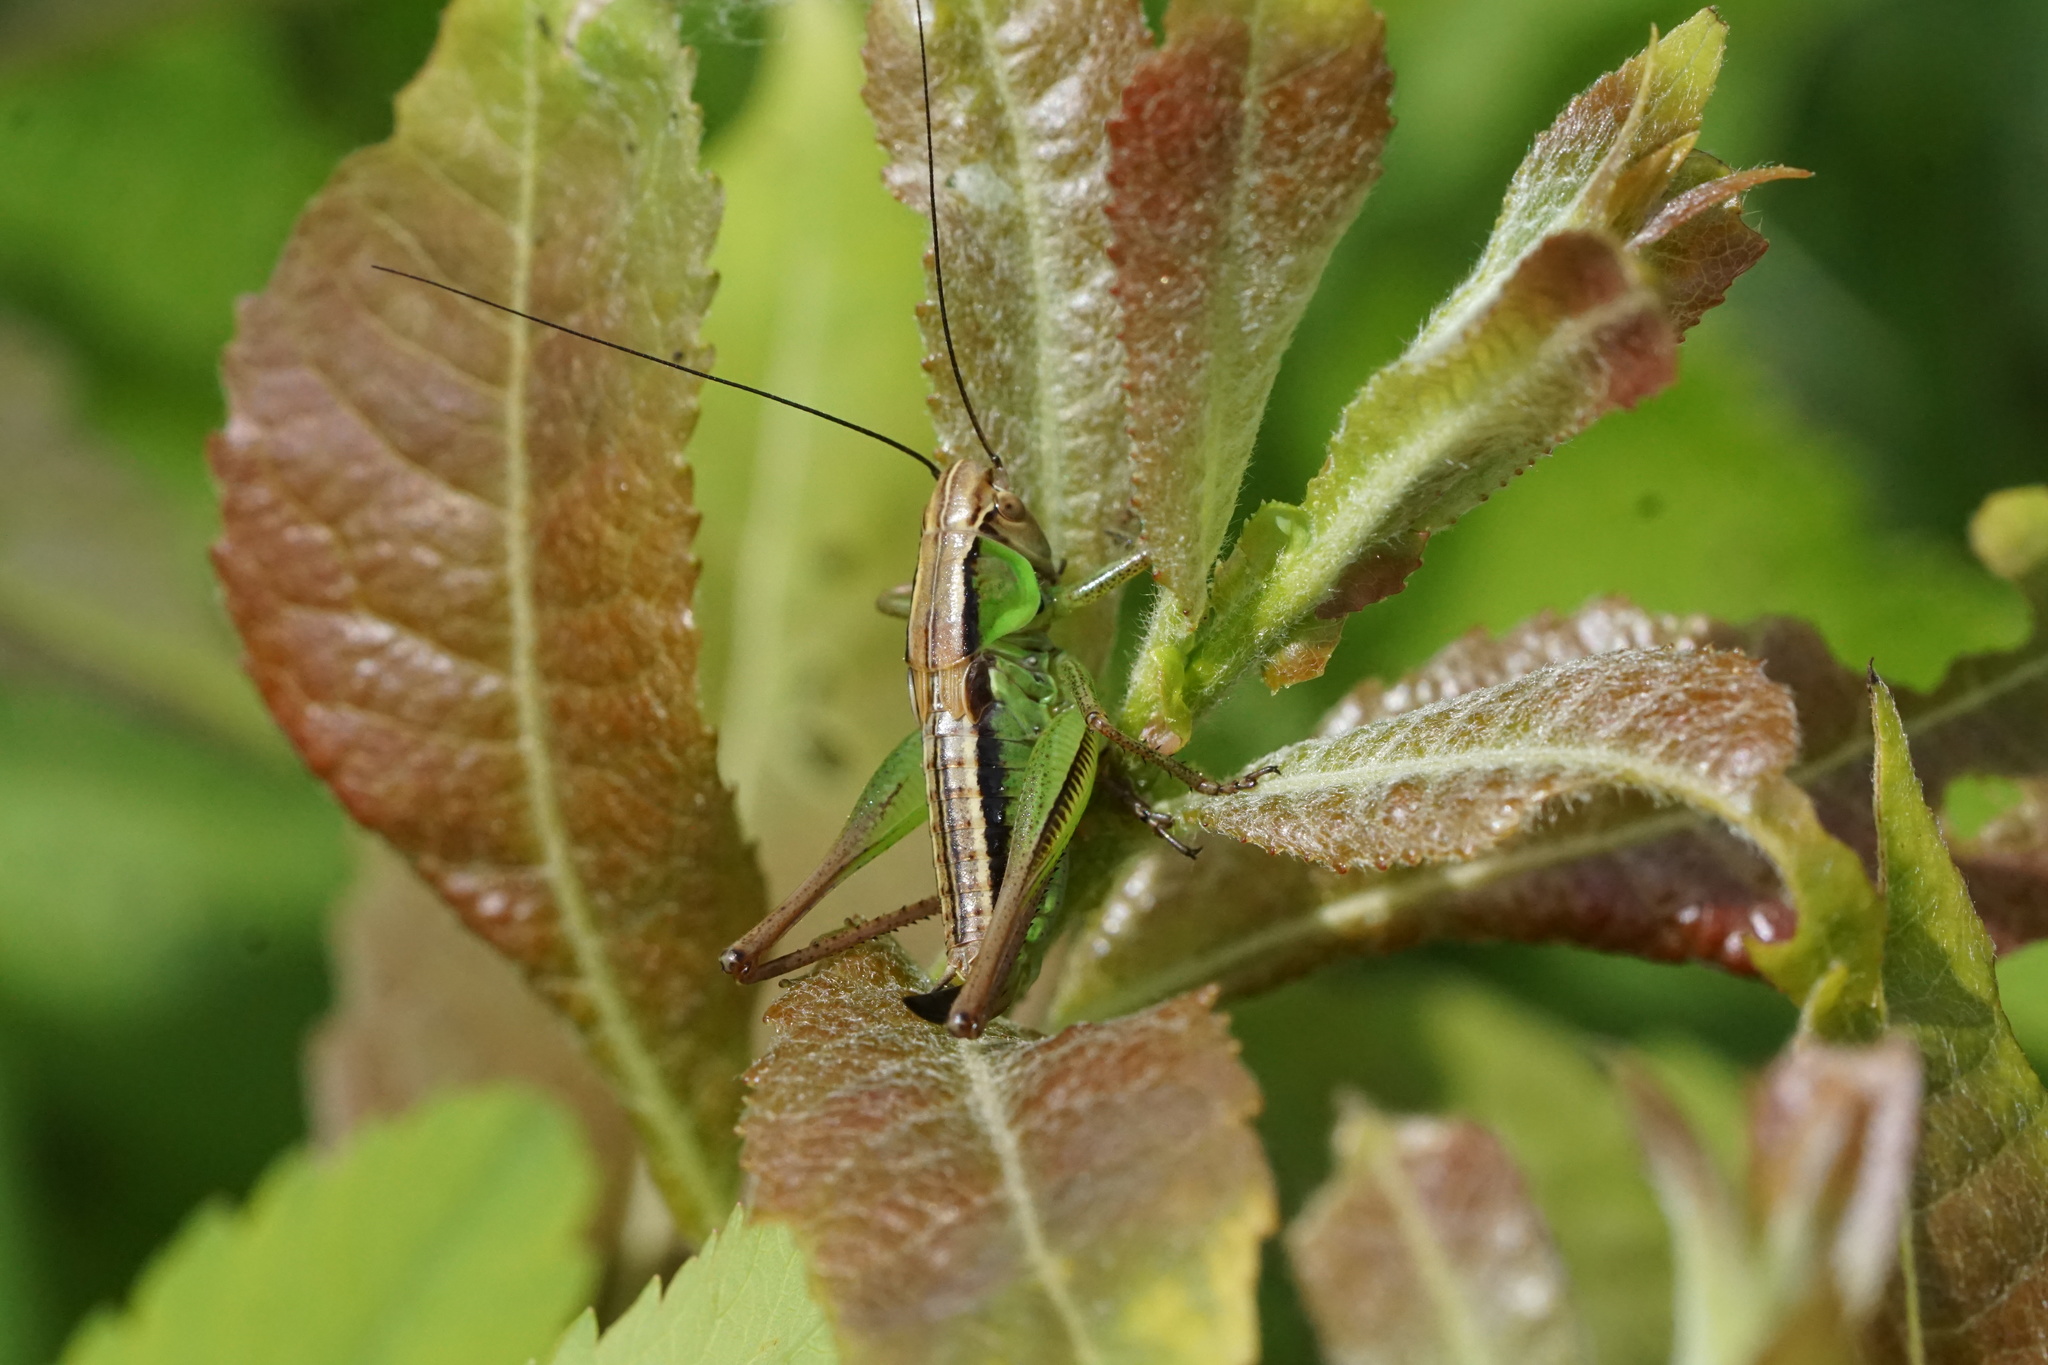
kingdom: Animalia
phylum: Arthropoda
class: Insecta
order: Orthoptera
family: Tettigoniidae
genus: Roeseliana
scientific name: Roeseliana roeselii
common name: Roesel's bush cricket
